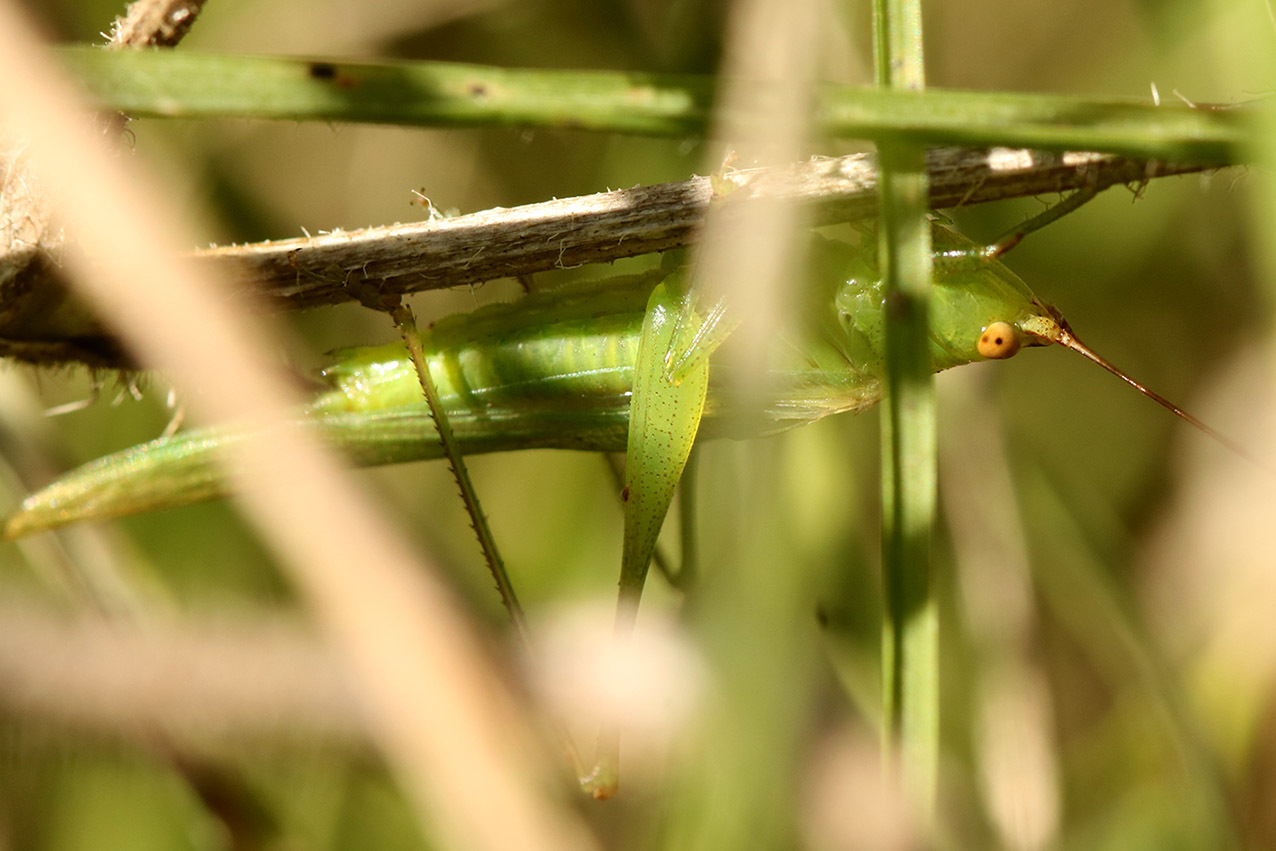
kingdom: Animalia
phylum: Arthropoda
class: Insecta
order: Orthoptera
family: Tettigoniidae
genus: Conocephalus
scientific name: Conocephalus longipes
